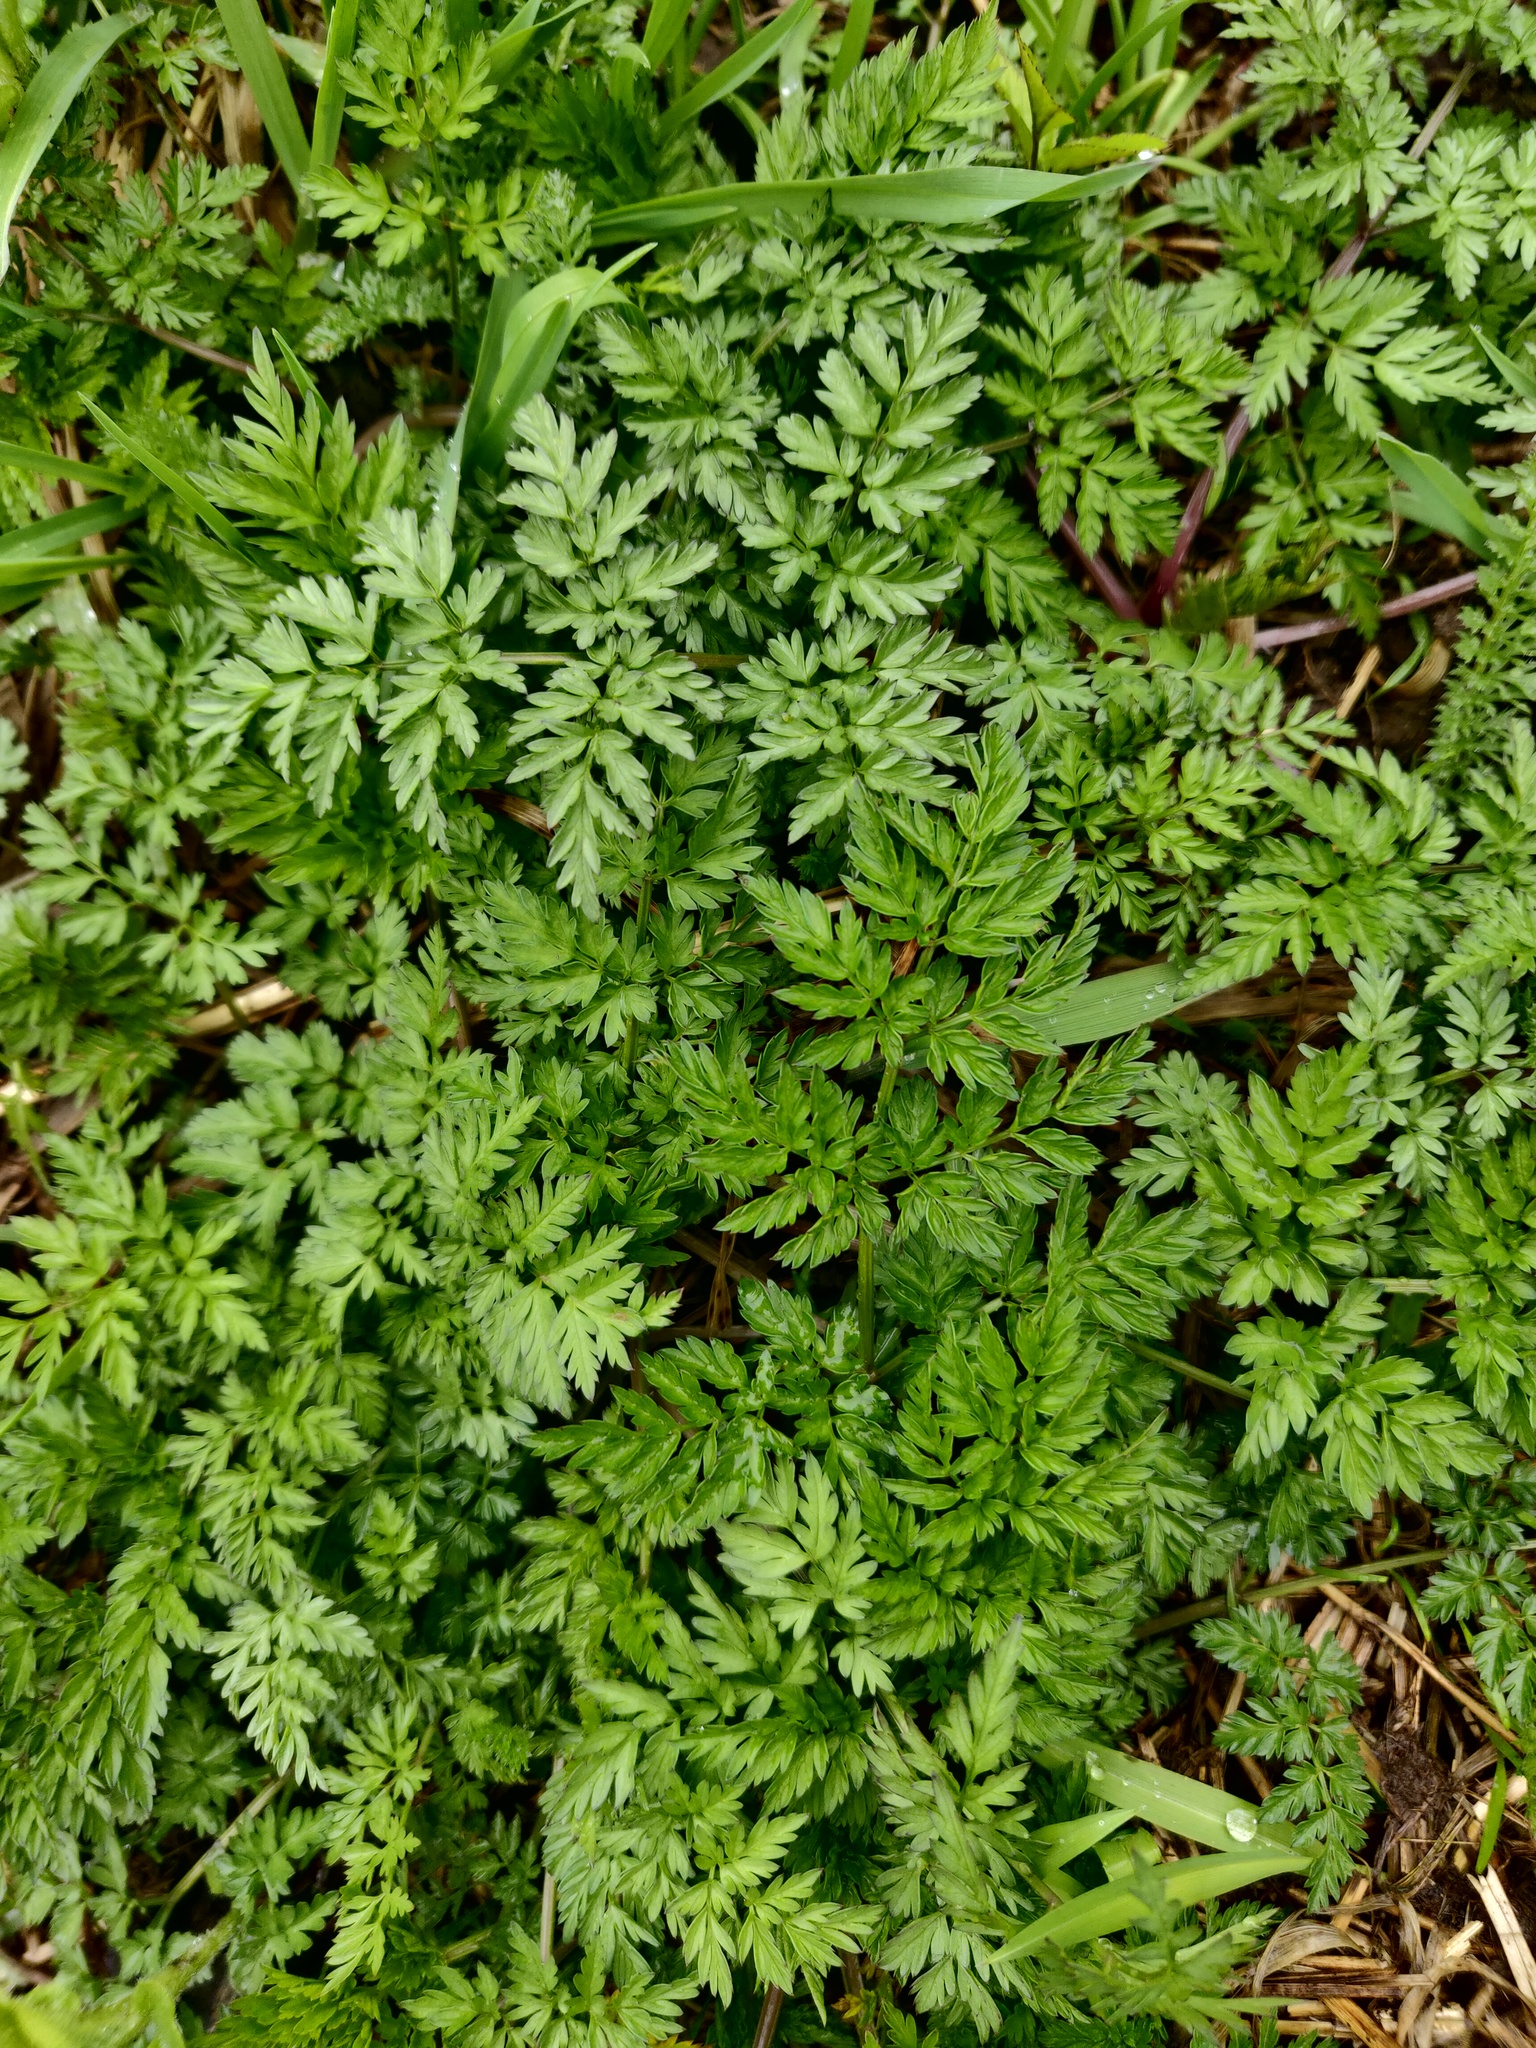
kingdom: Plantae
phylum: Tracheophyta
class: Magnoliopsida
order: Apiales
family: Apiaceae
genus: Anthriscus
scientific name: Anthriscus sylvestris
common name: Cow parsley
